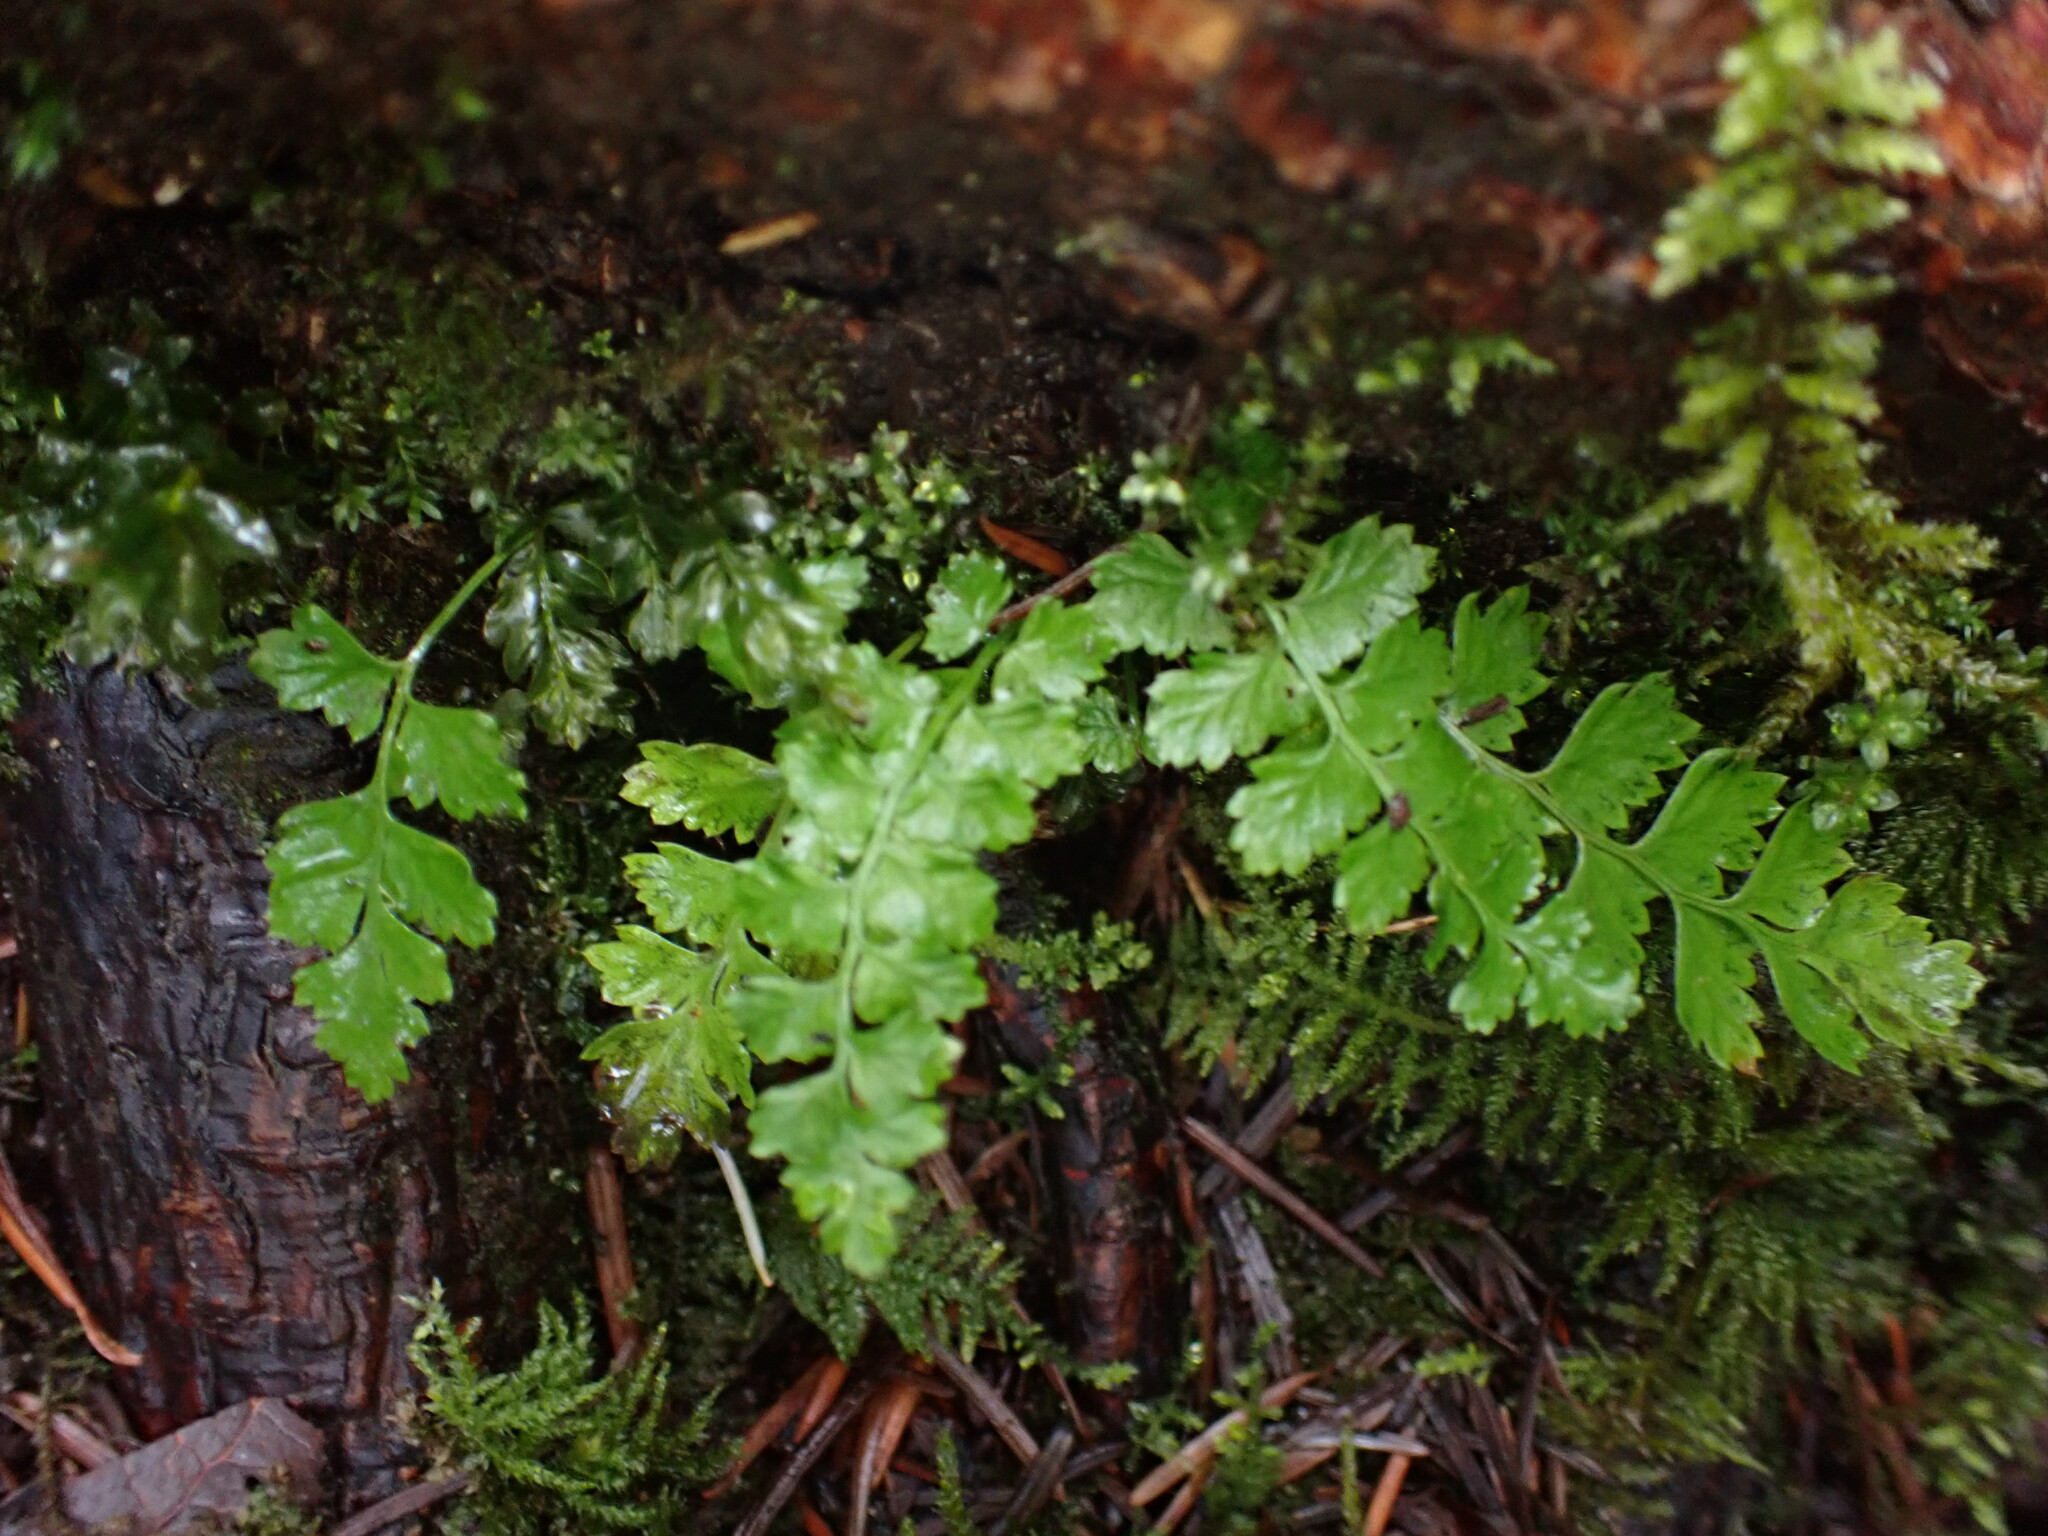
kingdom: Plantae
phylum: Tracheophyta
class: Polypodiopsida
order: Polypodiales
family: Dryopteridaceae
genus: Polystichum
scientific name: Polystichum munitum
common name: Western sword-fern
